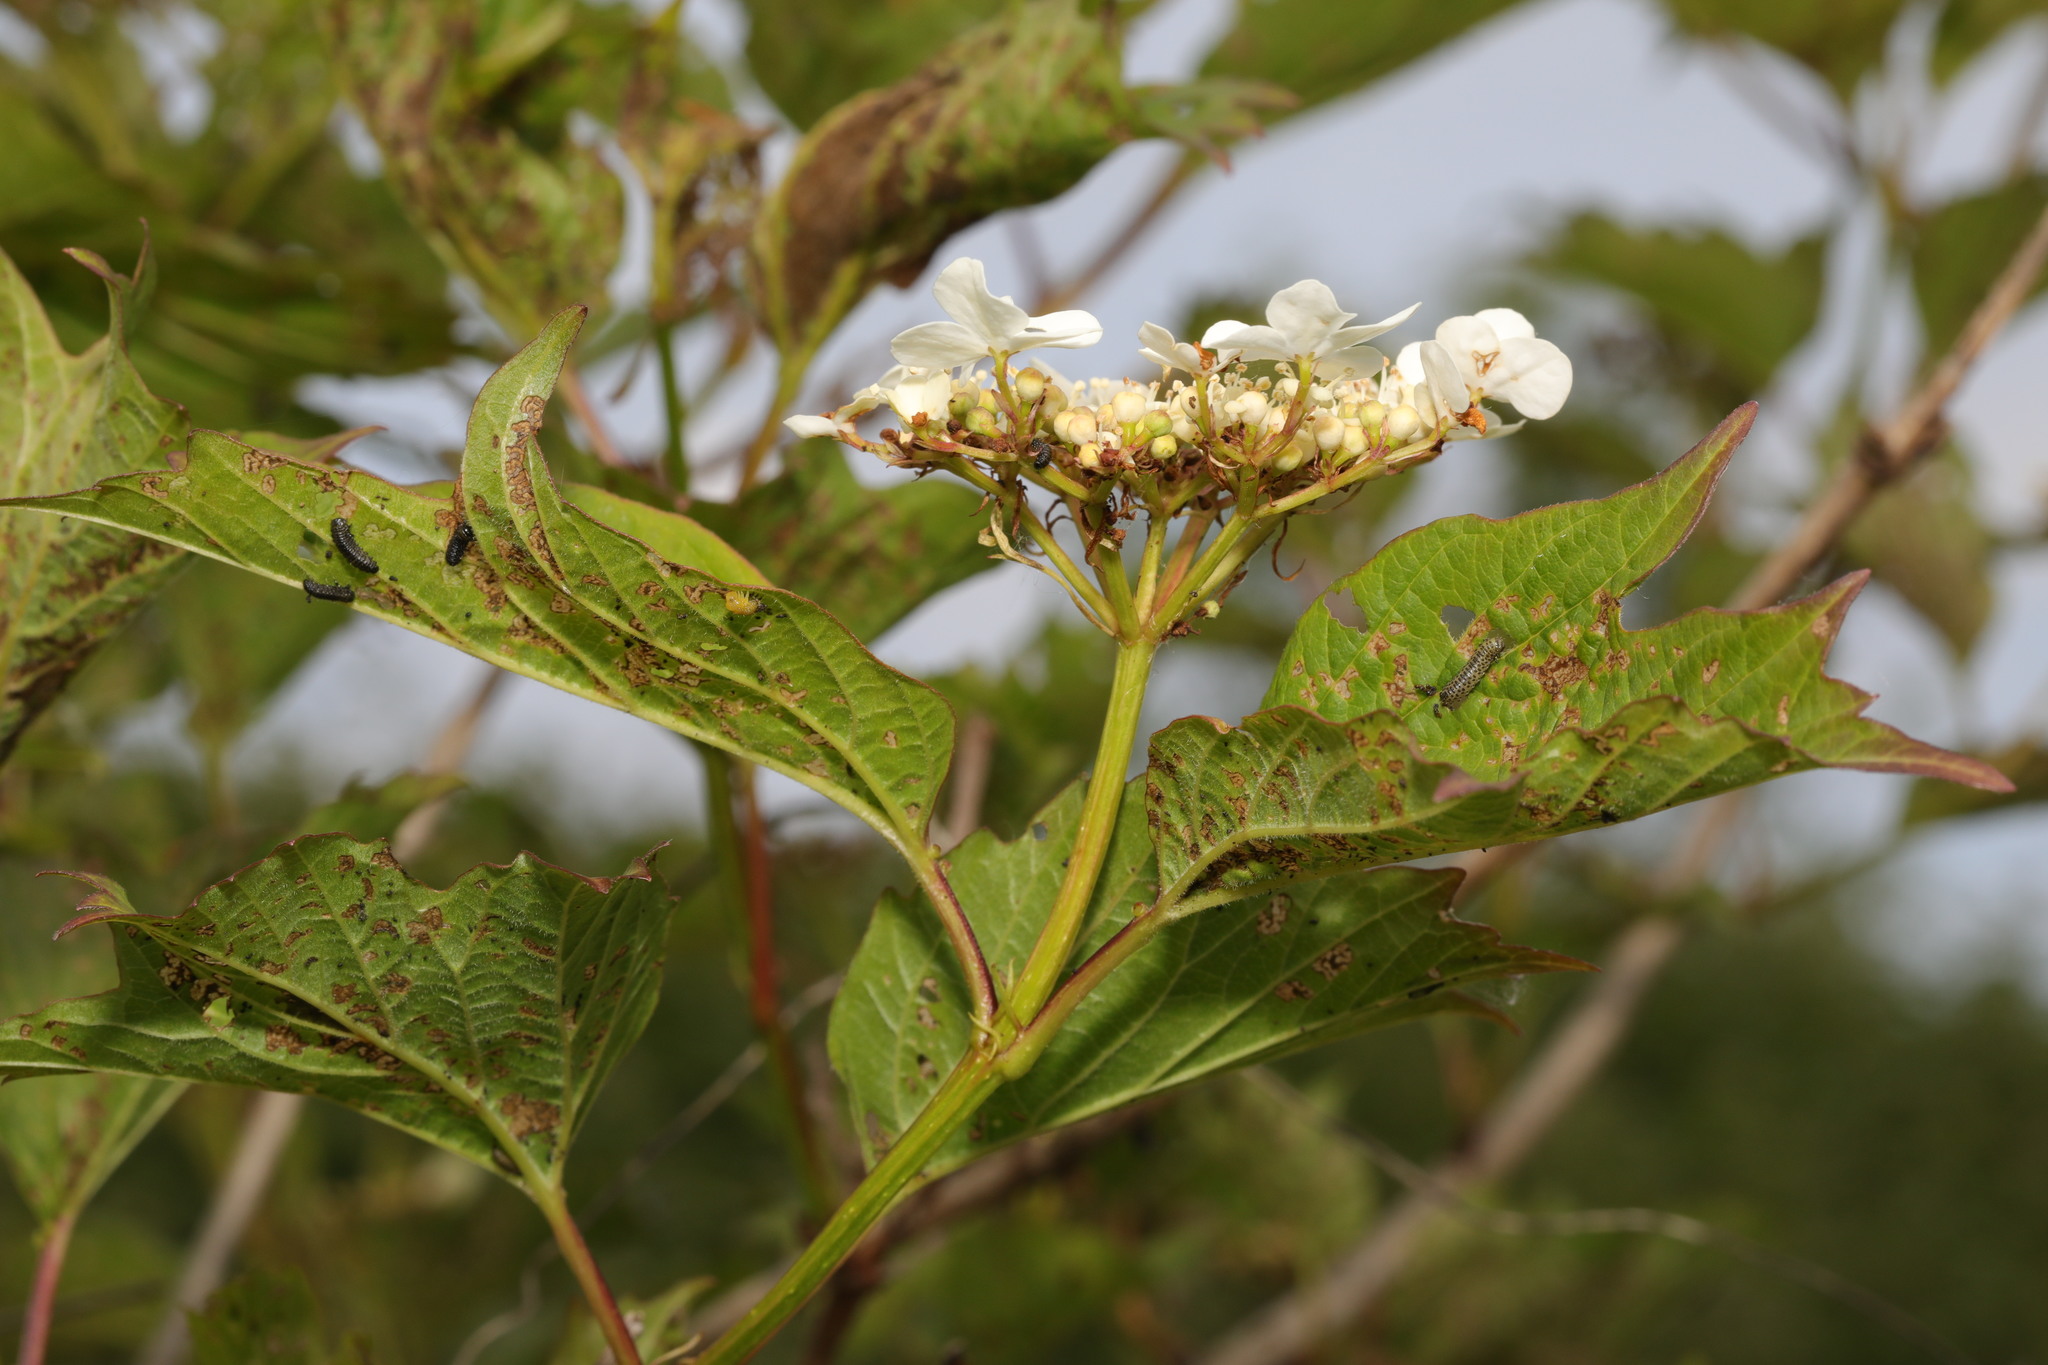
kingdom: Plantae
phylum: Tracheophyta
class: Magnoliopsida
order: Dipsacales
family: Viburnaceae
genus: Viburnum
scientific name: Viburnum opulus
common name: Guelder-rose
